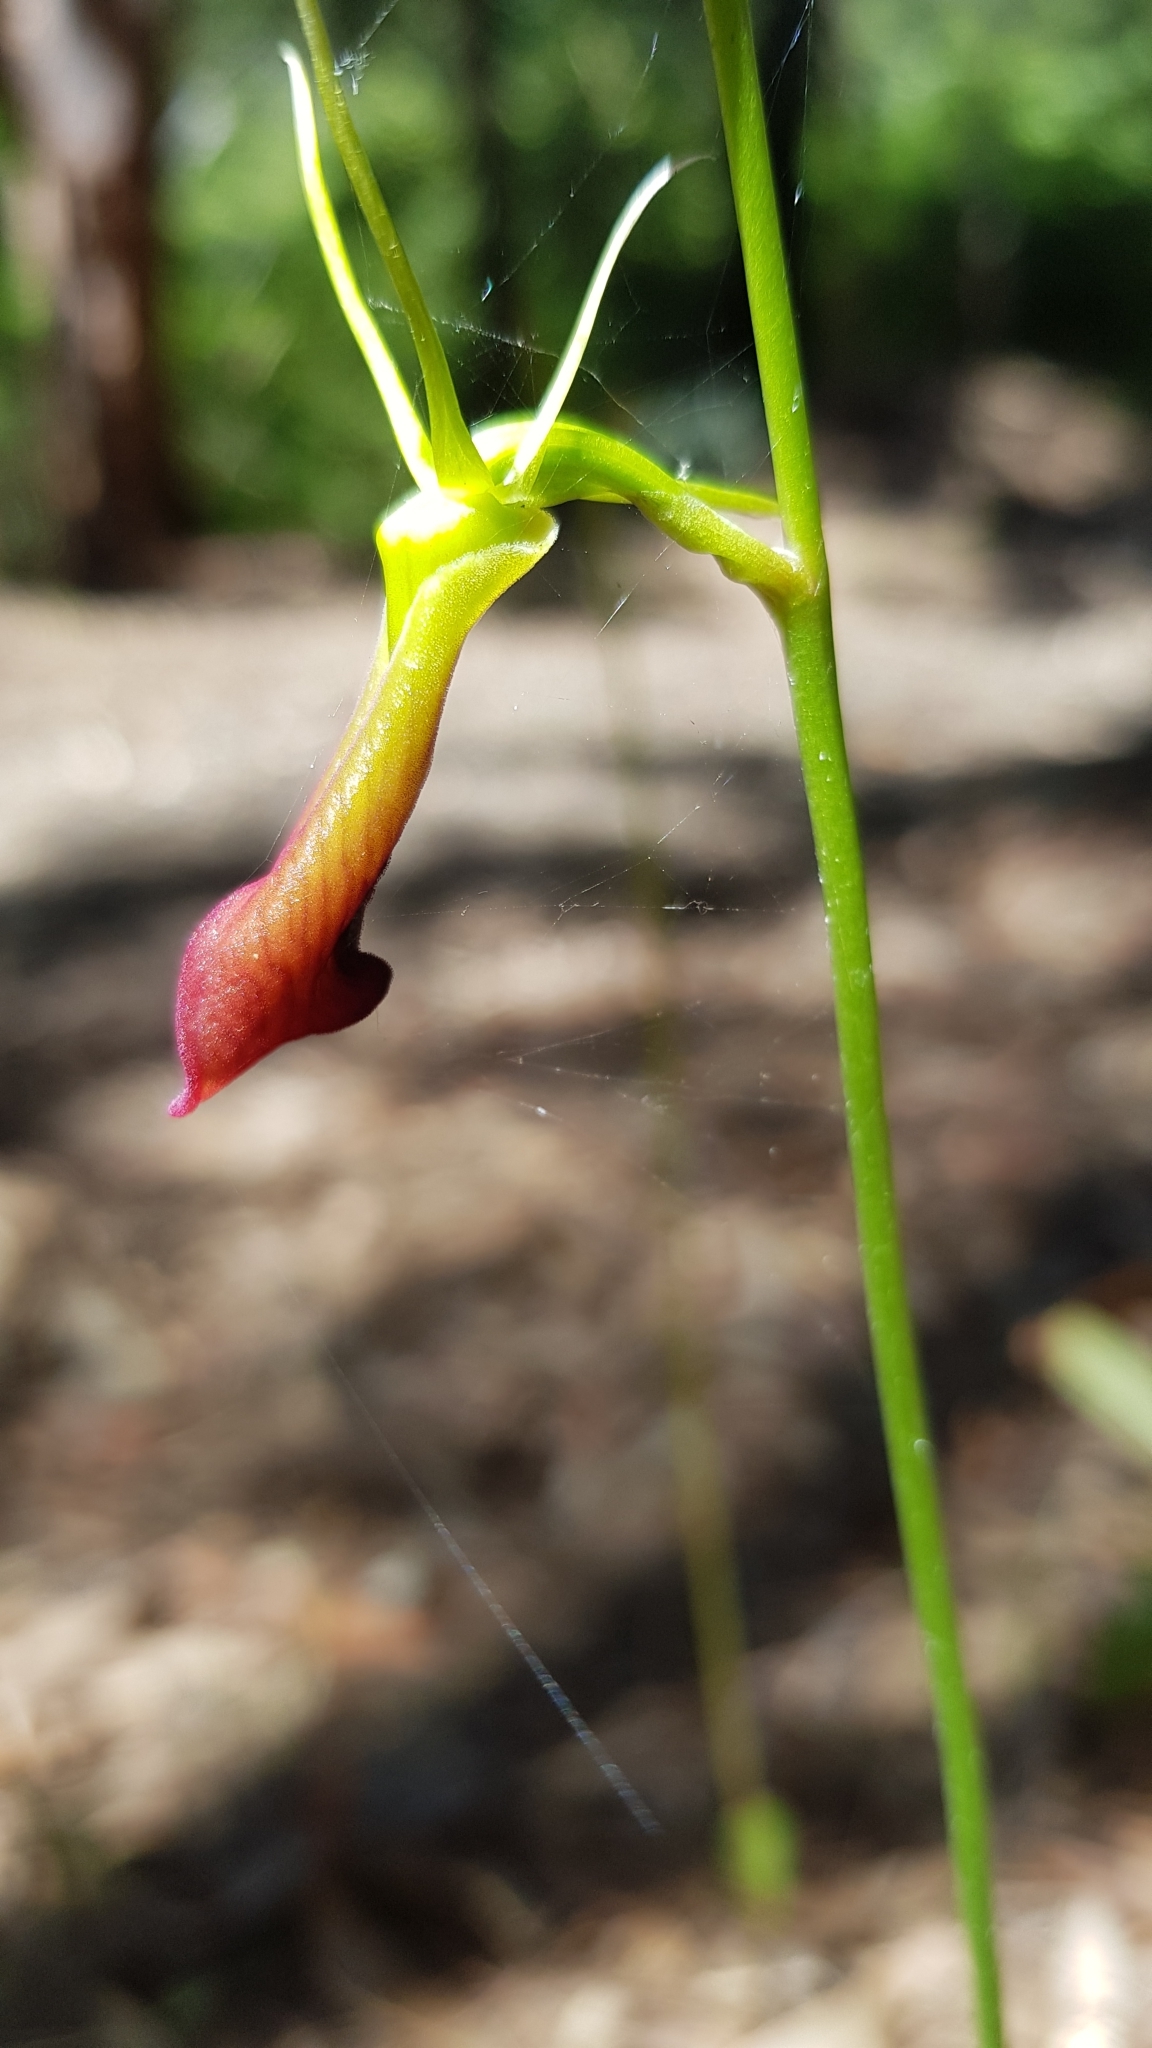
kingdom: Plantae
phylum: Tracheophyta
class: Liliopsida
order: Asparagales
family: Orchidaceae
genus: Cryptostylis
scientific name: Cryptostylis subulata
